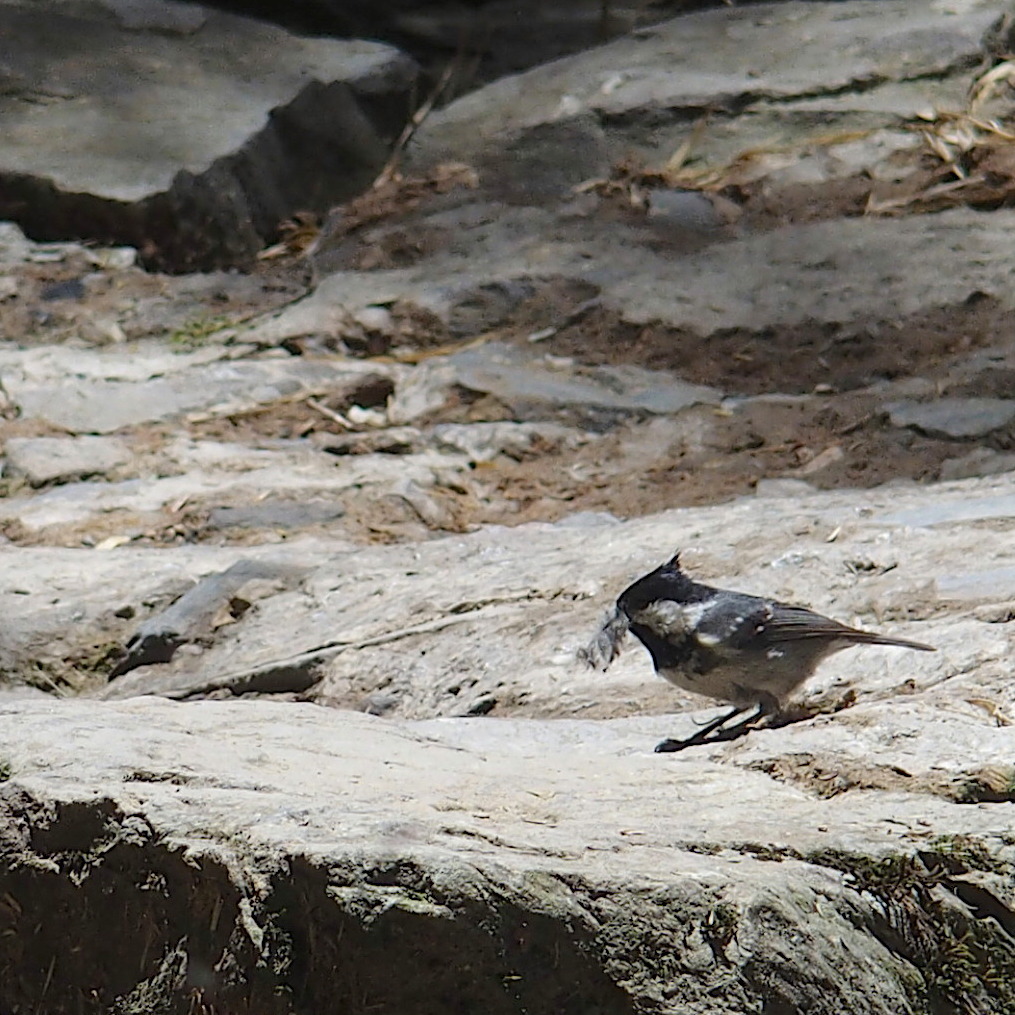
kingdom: Animalia
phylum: Chordata
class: Aves
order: Passeriformes
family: Paridae
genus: Periparus
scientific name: Periparus ater
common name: Coal tit
